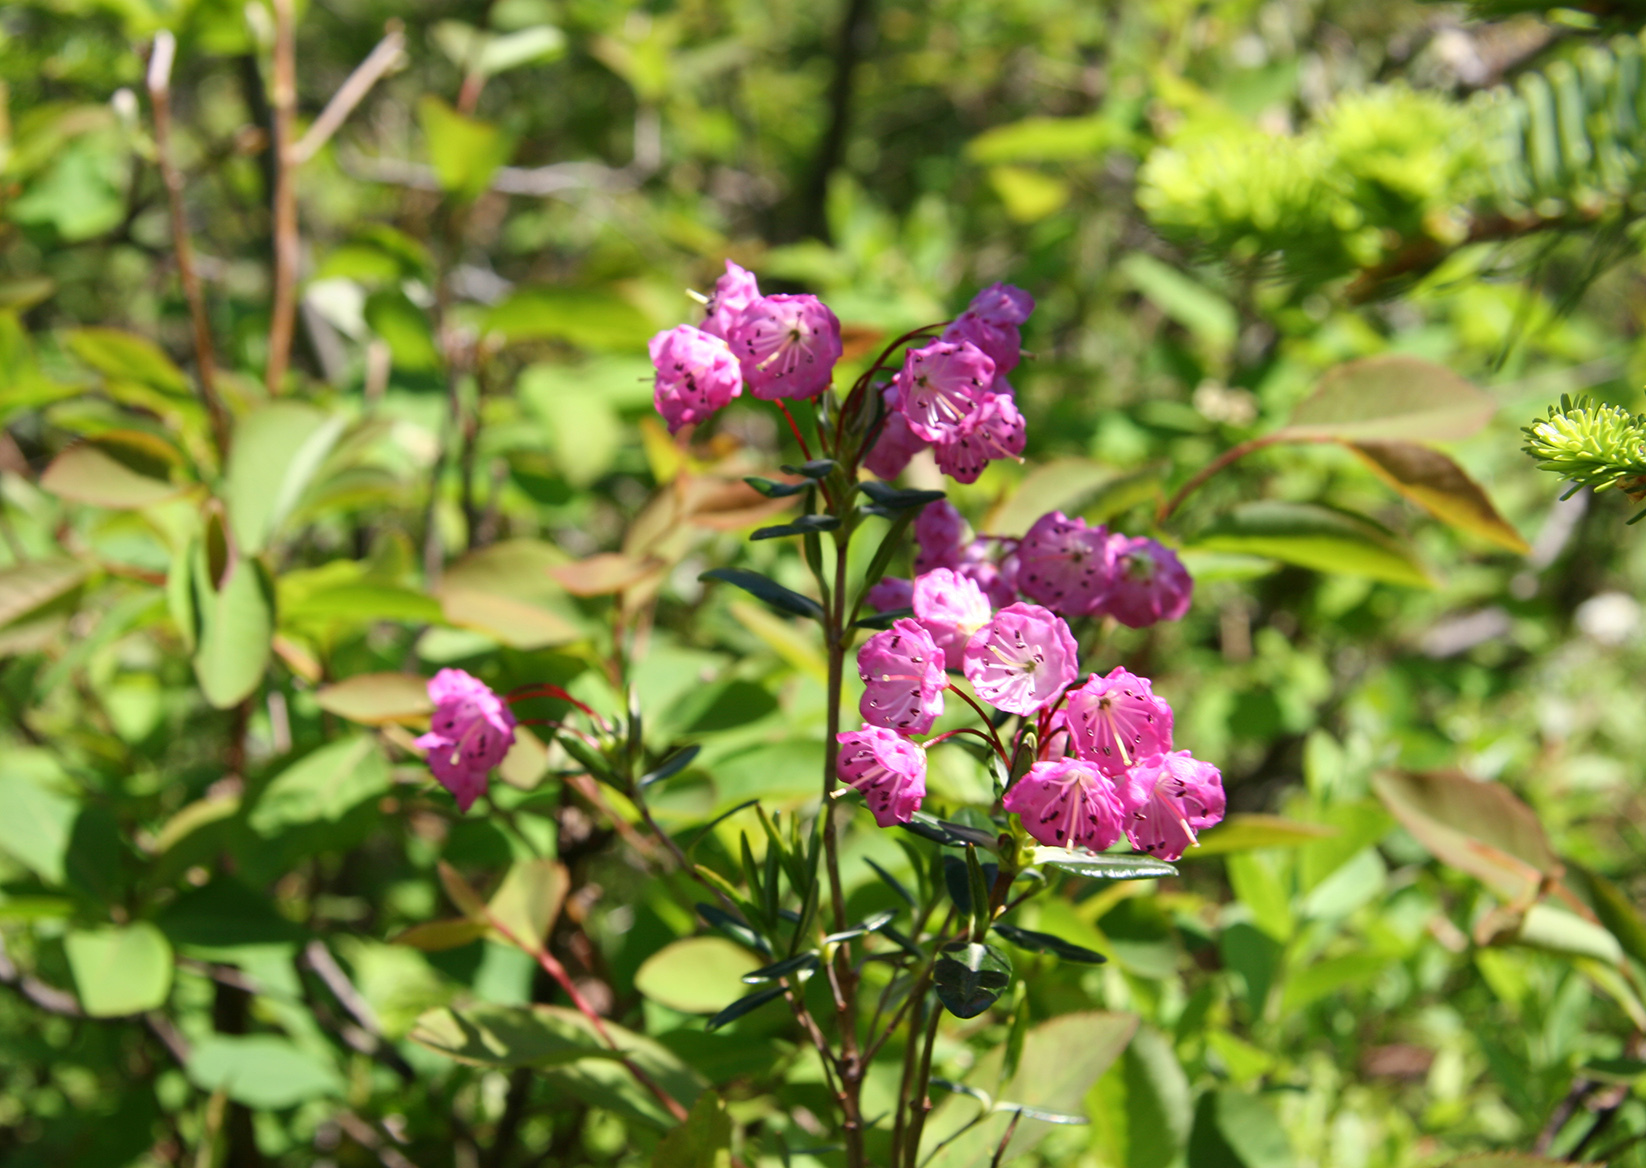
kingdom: Plantae
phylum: Tracheophyta
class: Magnoliopsida
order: Ericales
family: Ericaceae
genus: Kalmia
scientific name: Kalmia polifolia
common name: Bog-laurel
